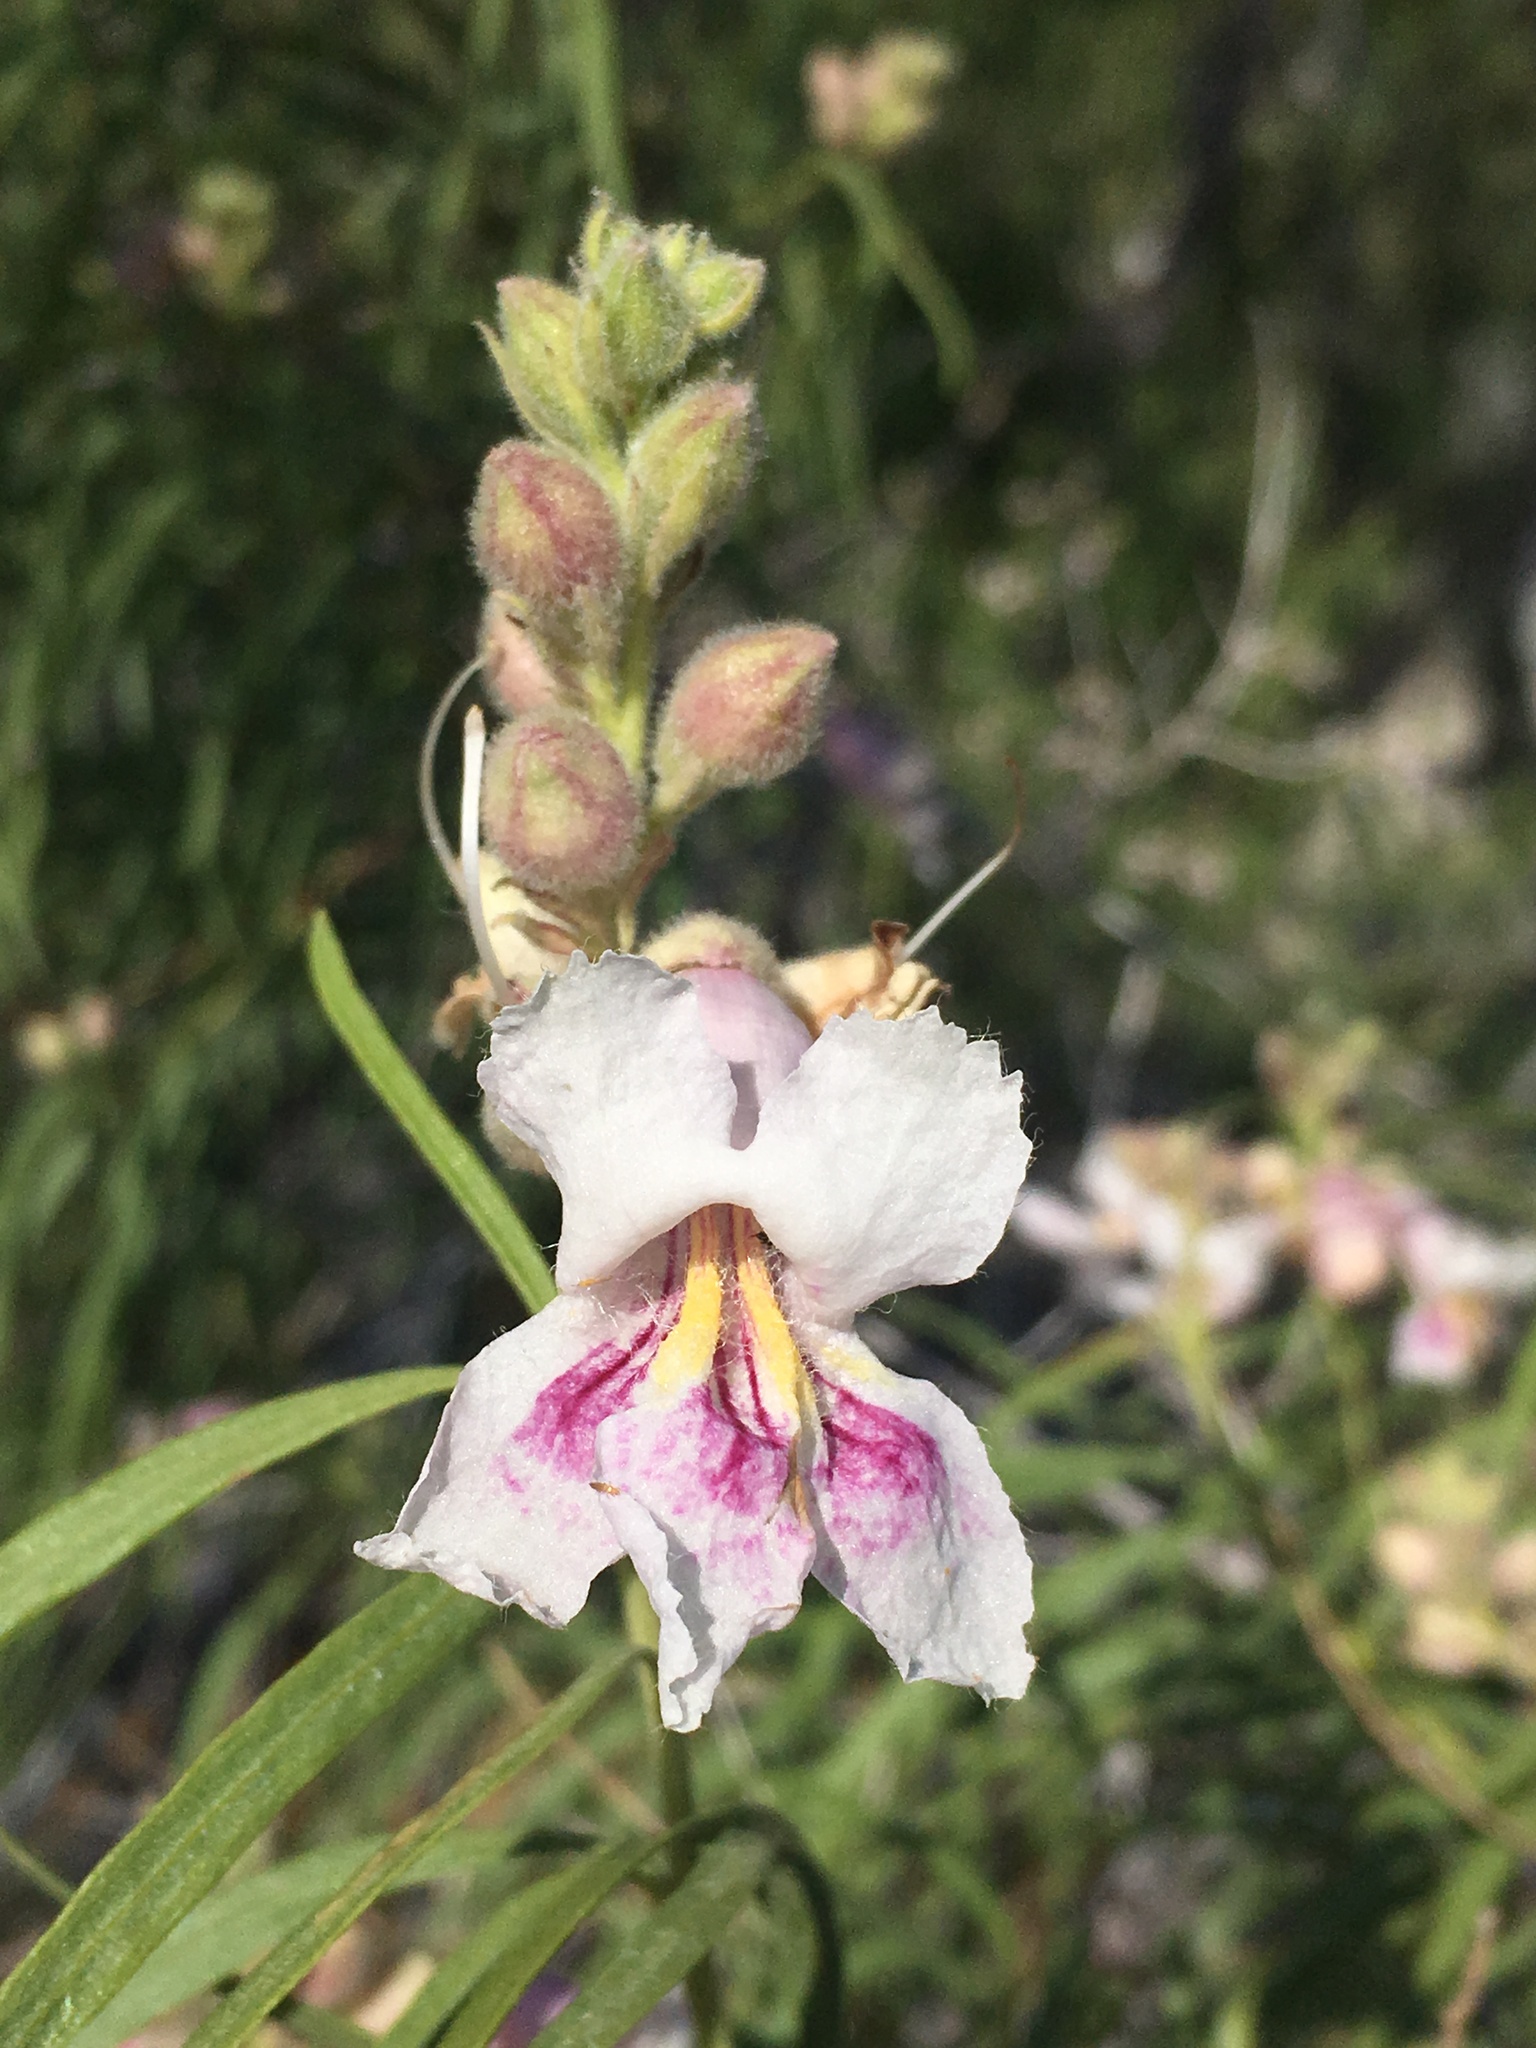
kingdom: Plantae
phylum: Tracheophyta
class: Magnoliopsida
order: Lamiales
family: Bignoniaceae
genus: Chilopsis
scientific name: Chilopsis linearis
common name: Desert-willow
